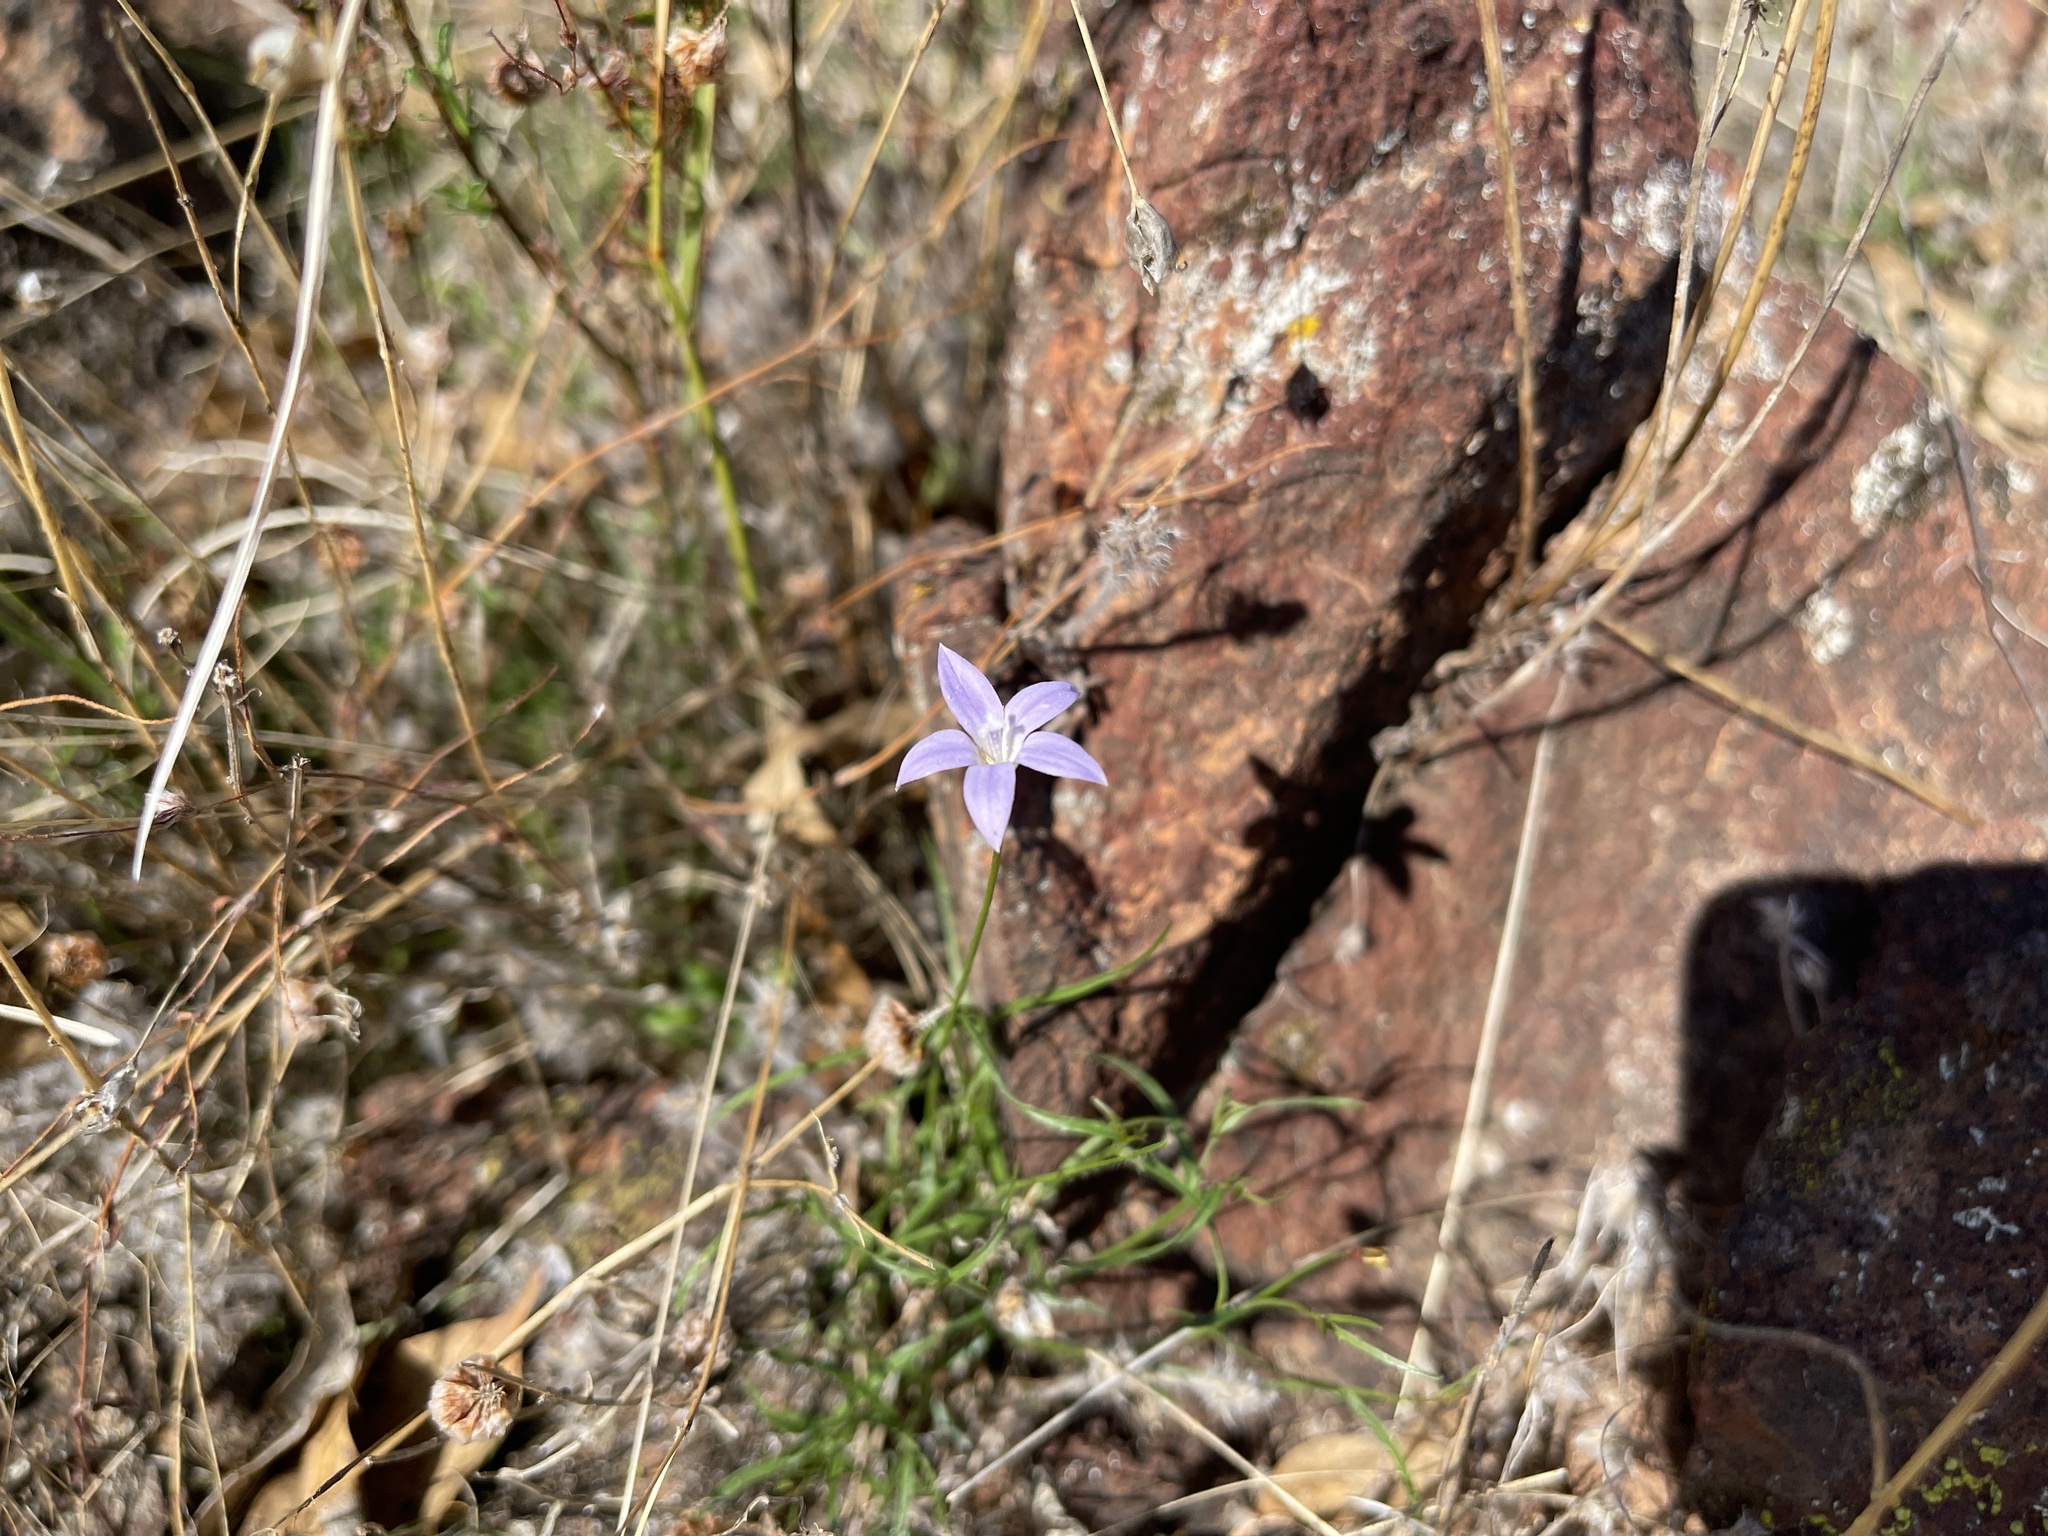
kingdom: Plantae
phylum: Tracheophyta
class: Magnoliopsida
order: Asterales
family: Campanulaceae
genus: Wahlenbergia
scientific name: Wahlenbergia capillaris
